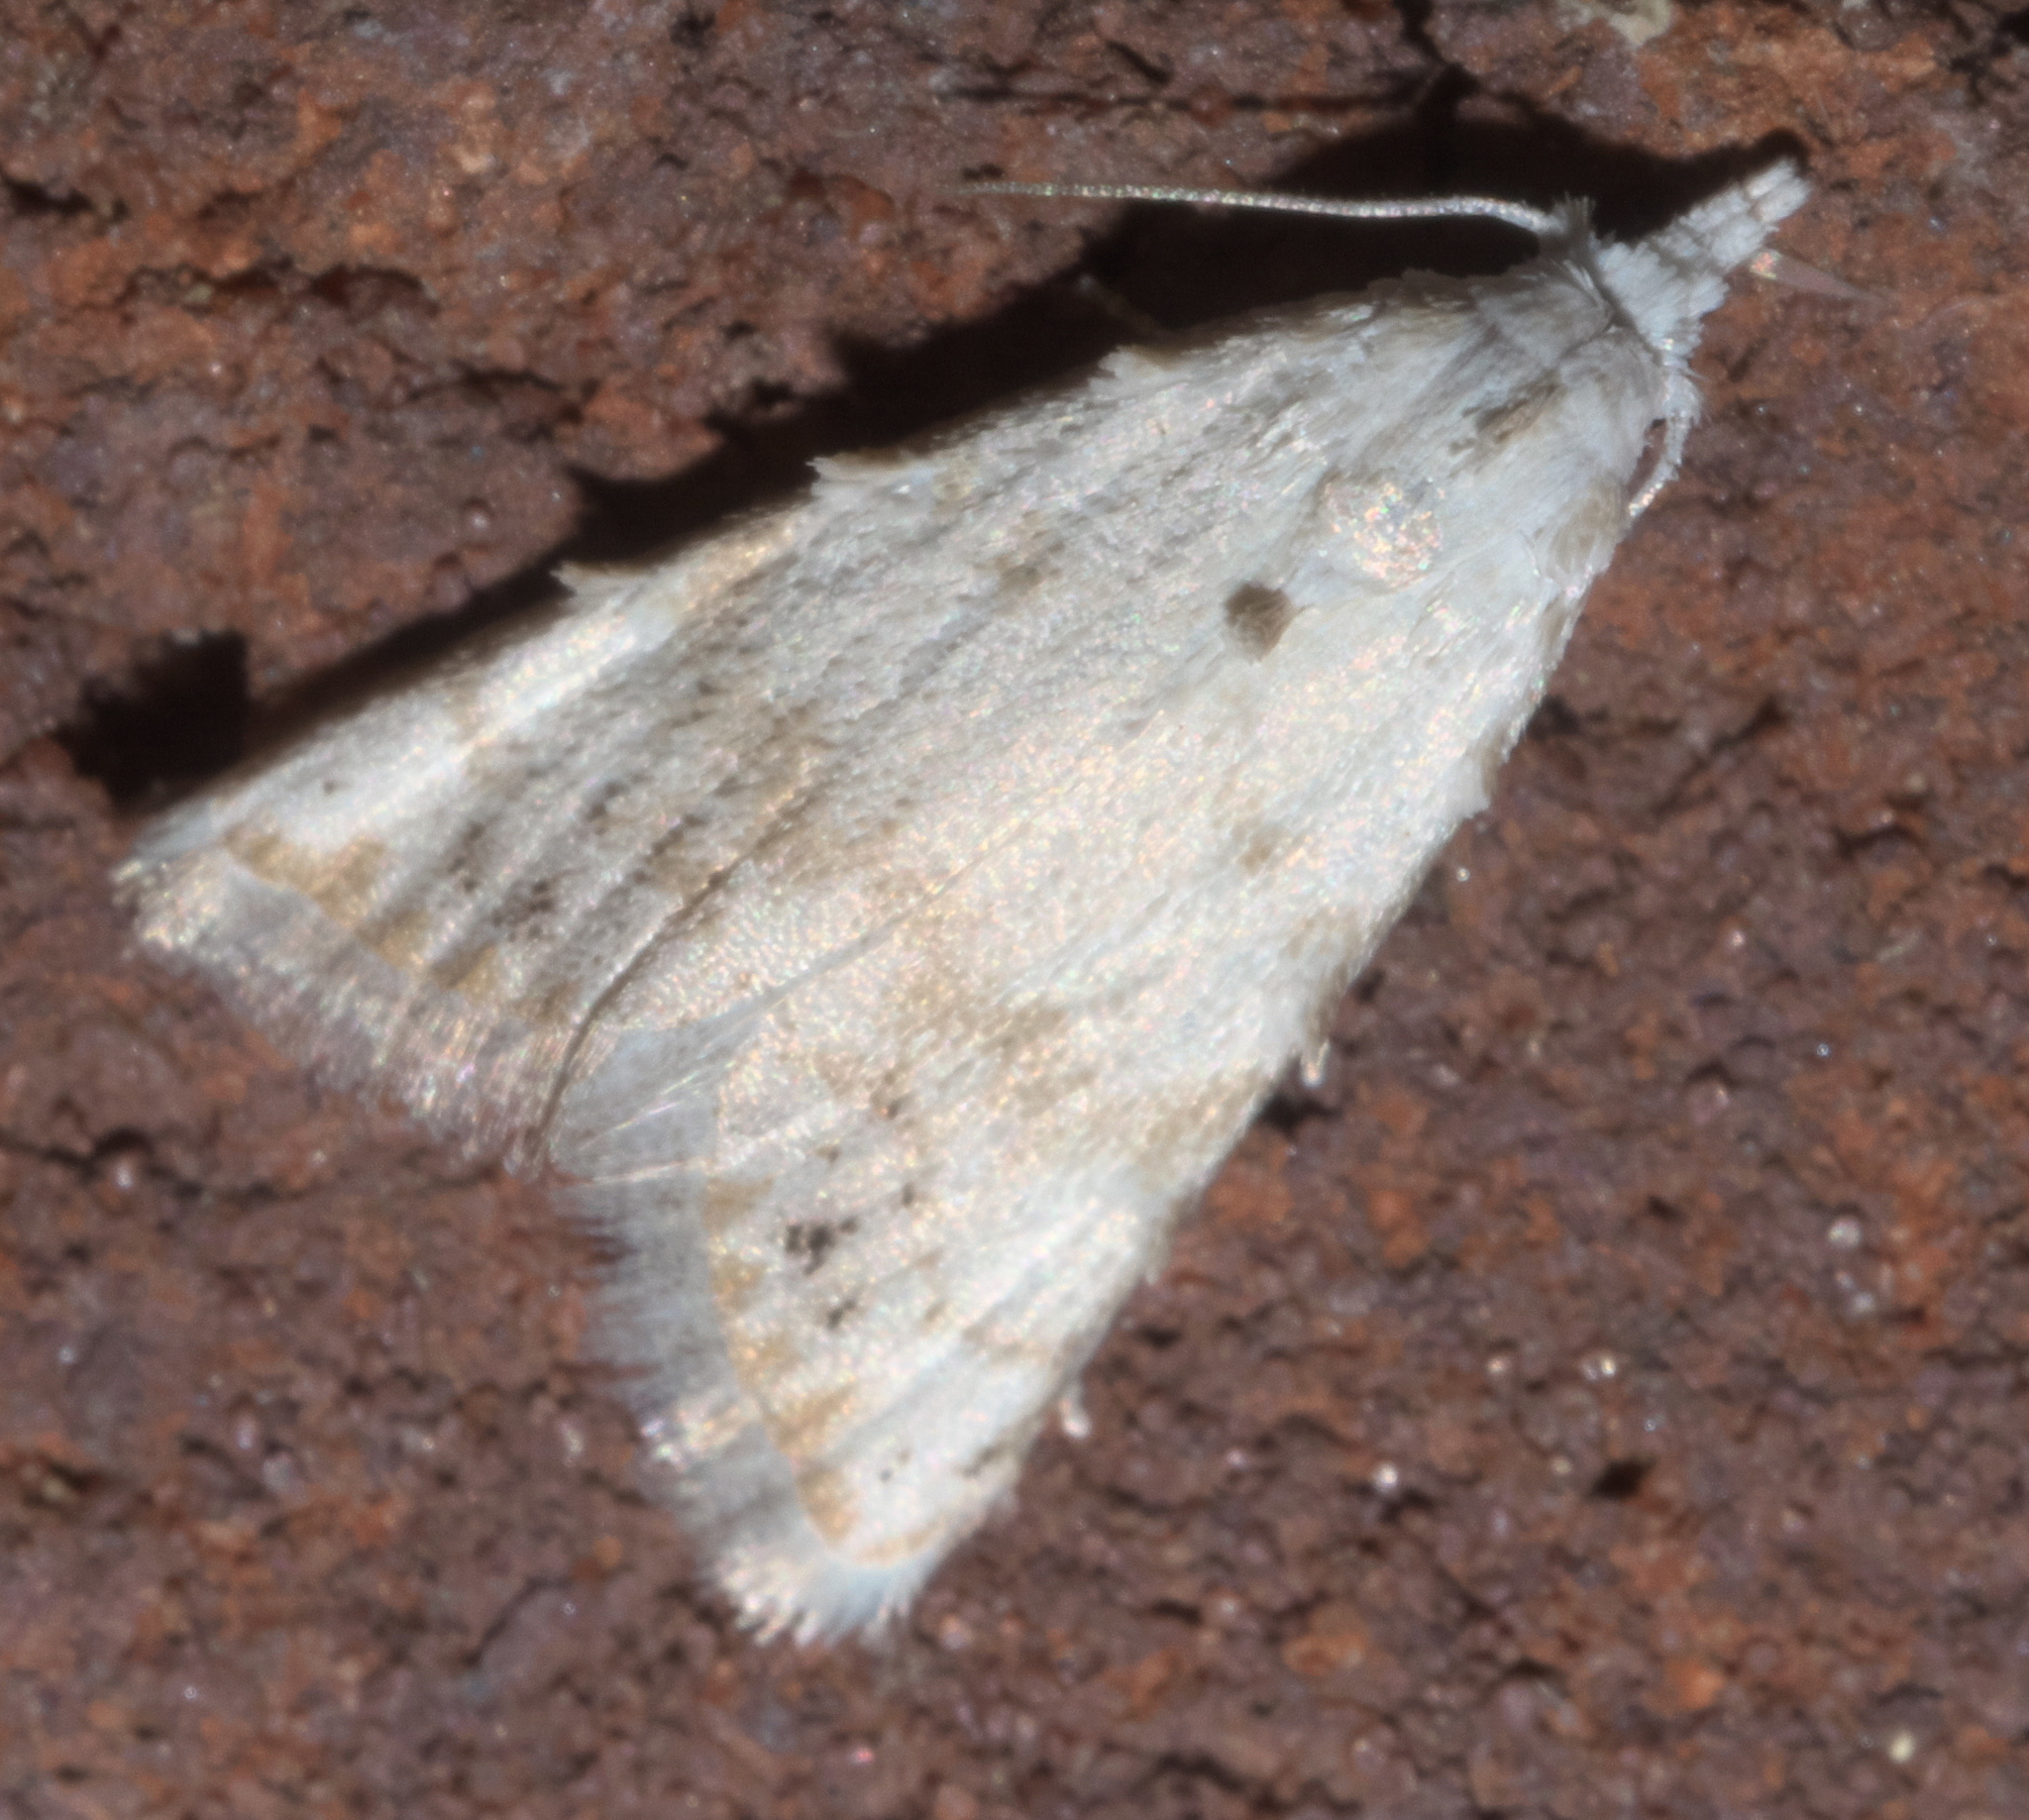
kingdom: Animalia
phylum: Arthropoda
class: Insecta
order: Lepidoptera
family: Nolidae
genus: Nola
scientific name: Nola cereella
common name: Sorghum webworm moth
